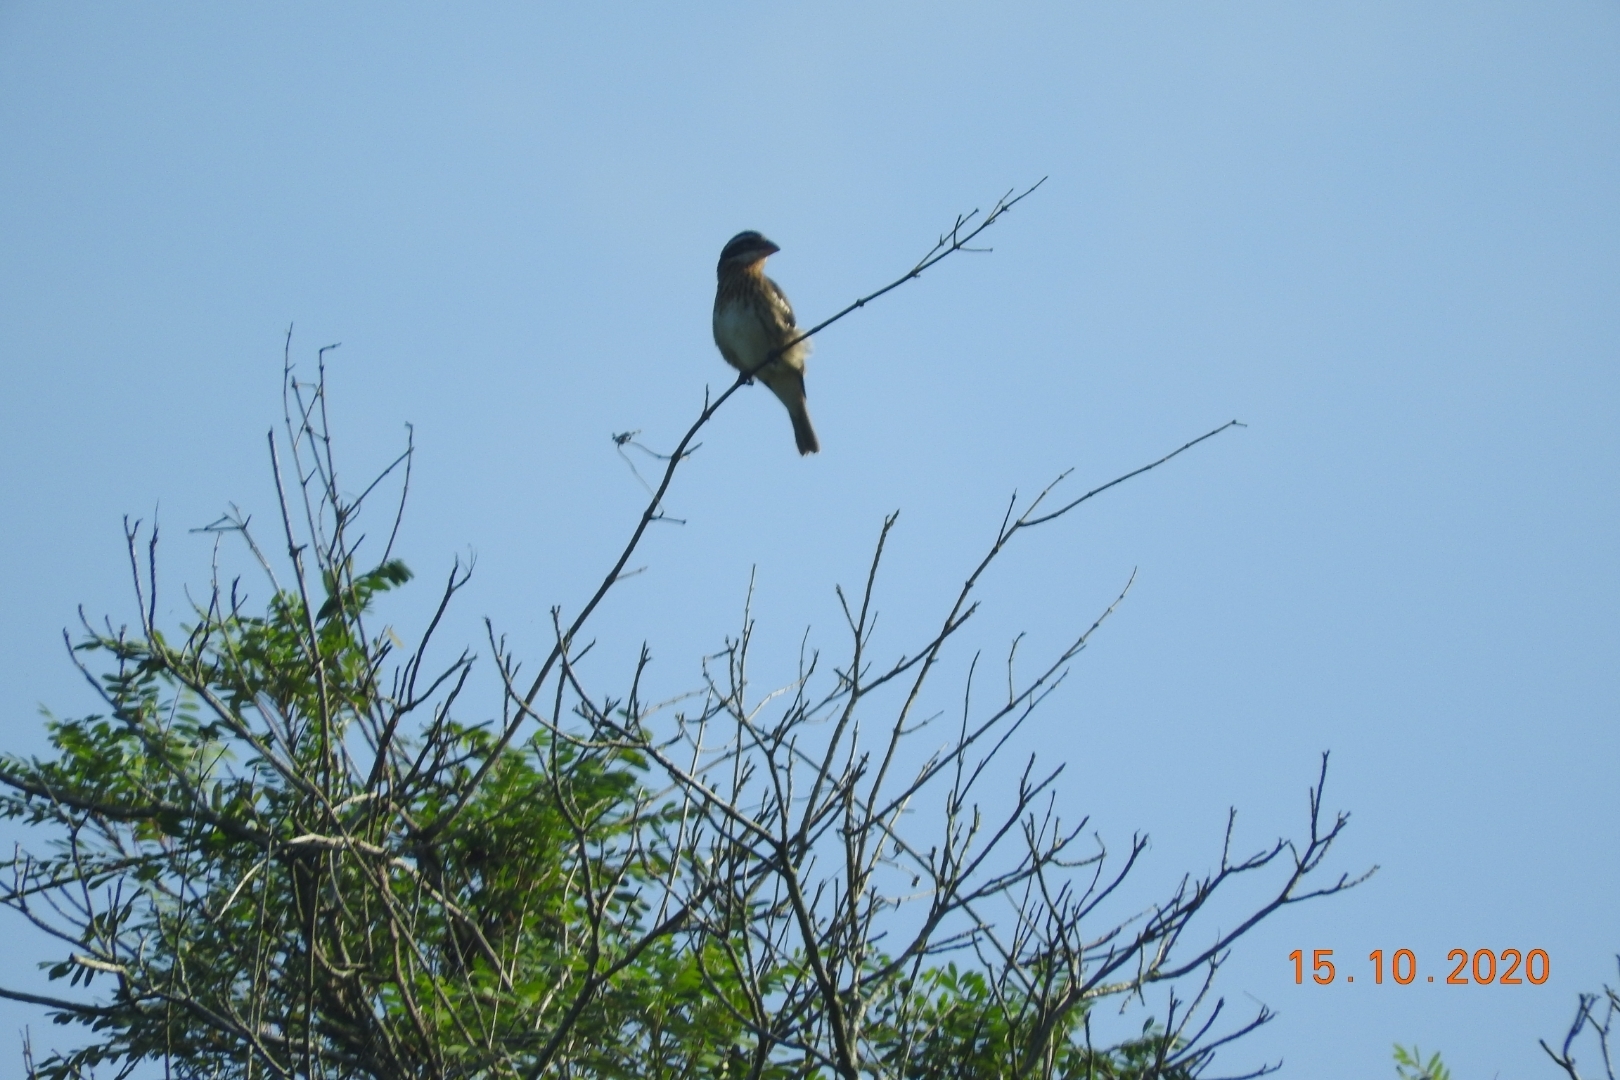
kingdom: Animalia
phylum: Chordata
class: Aves
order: Passeriformes
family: Cardinalidae
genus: Pheucticus
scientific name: Pheucticus ludovicianus
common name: Rose-breasted grosbeak
